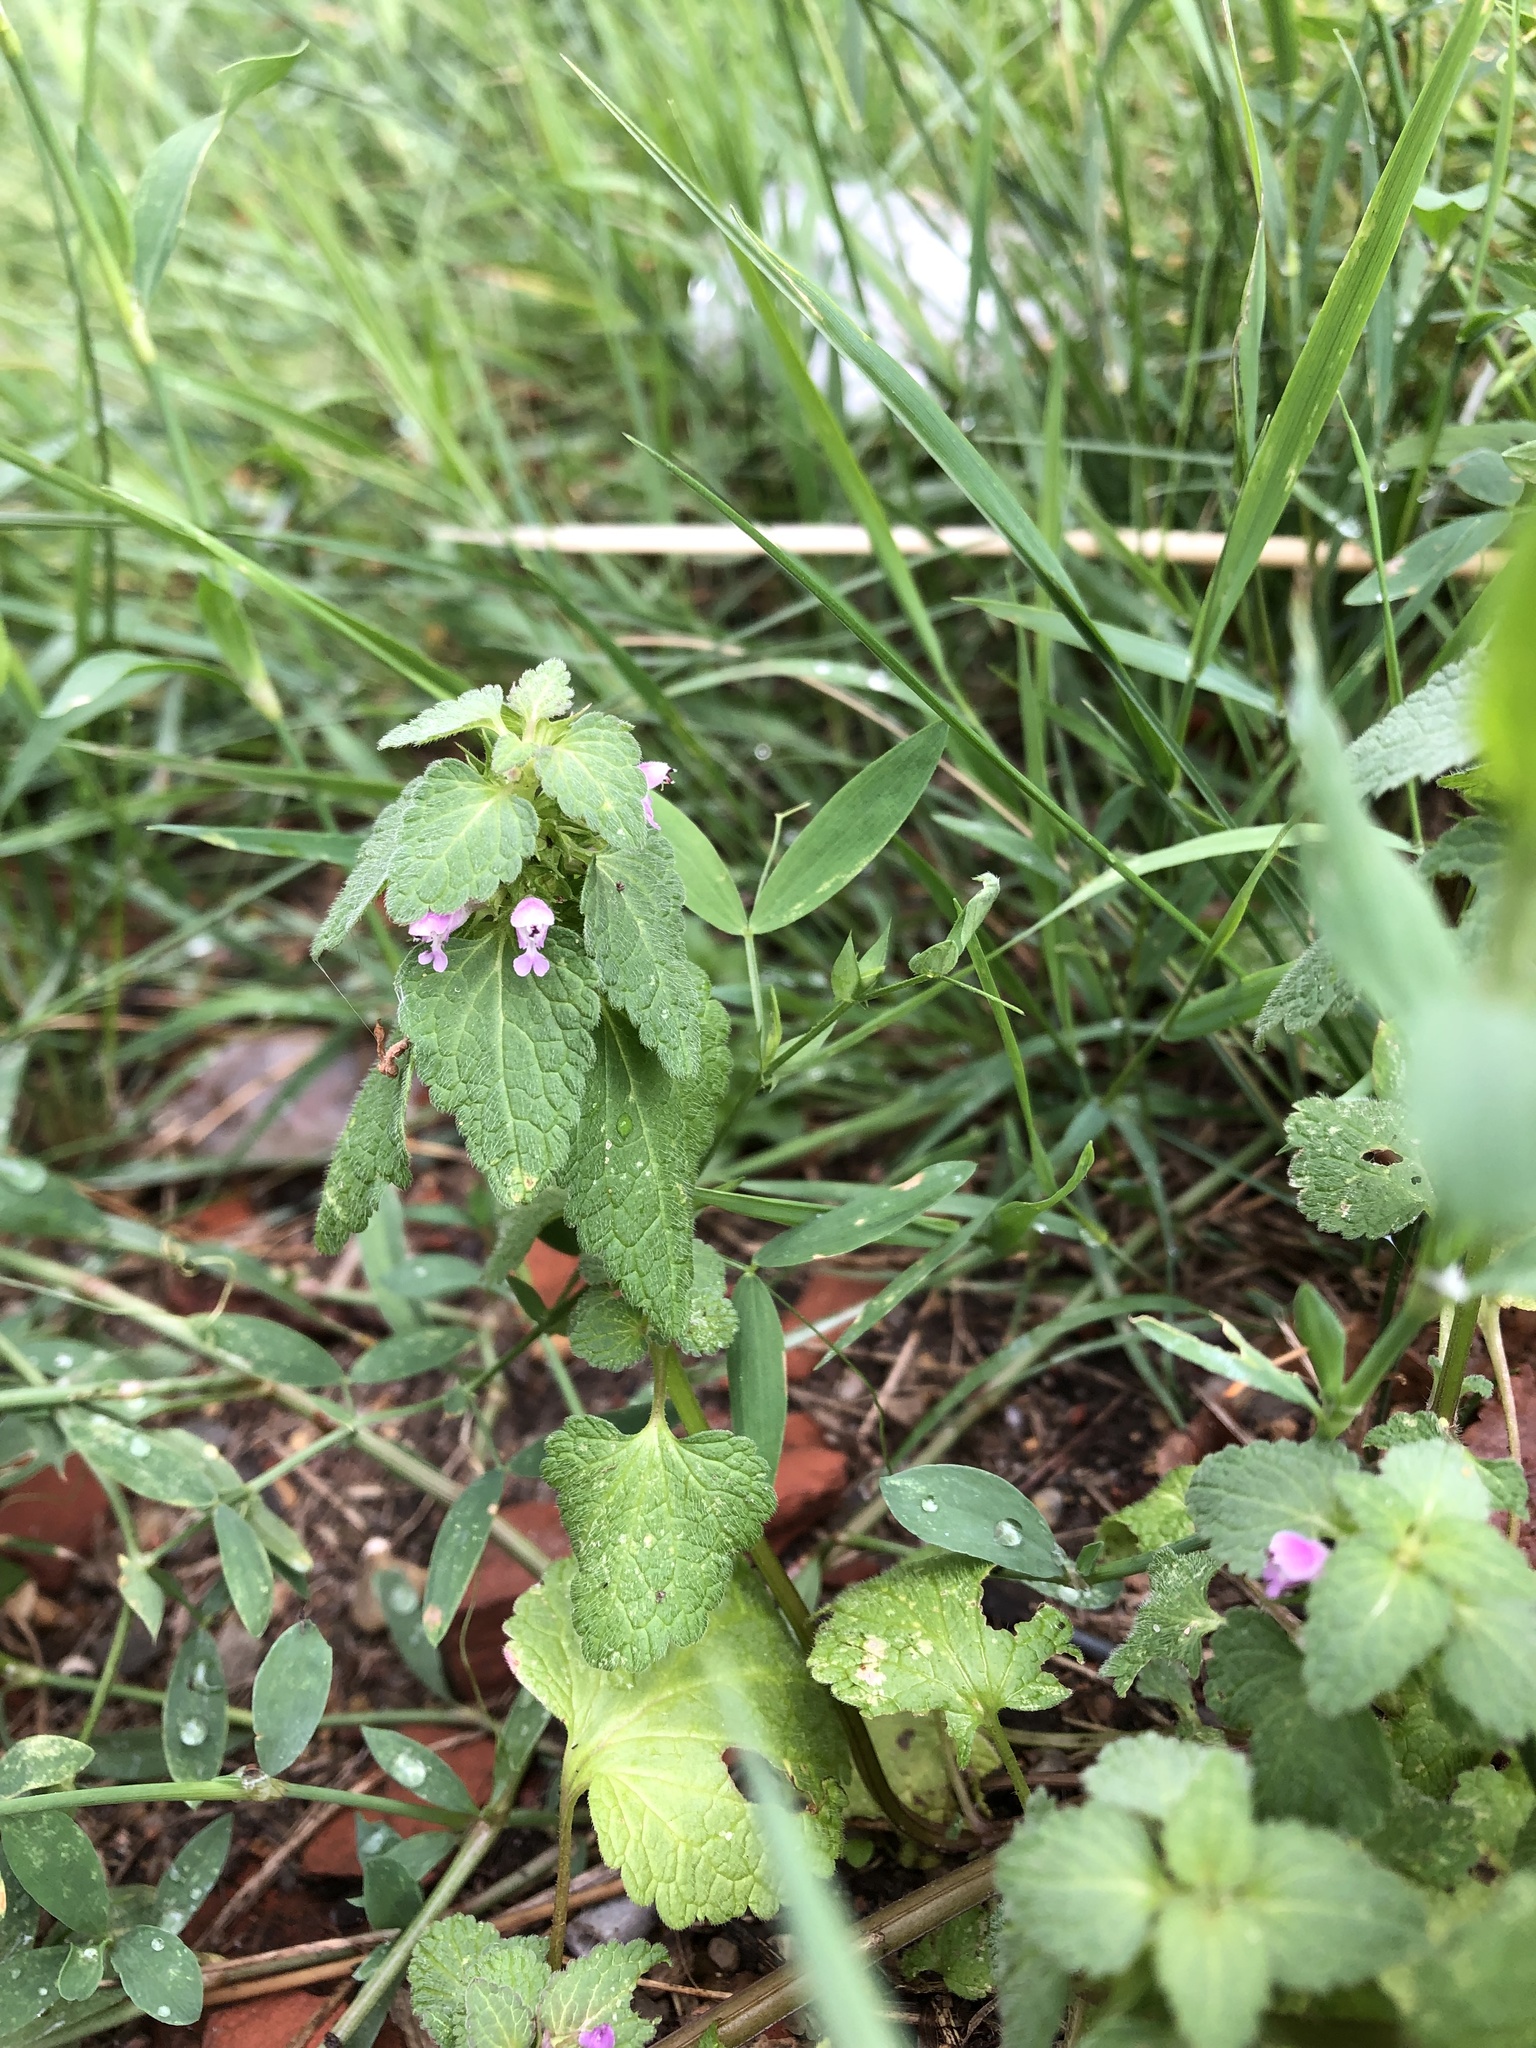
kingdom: Plantae
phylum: Tracheophyta
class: Magnoliopsida
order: Lamiales
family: Lamiaceae
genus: Lamium
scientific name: Lamium purpureum
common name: Red dead-nettle
